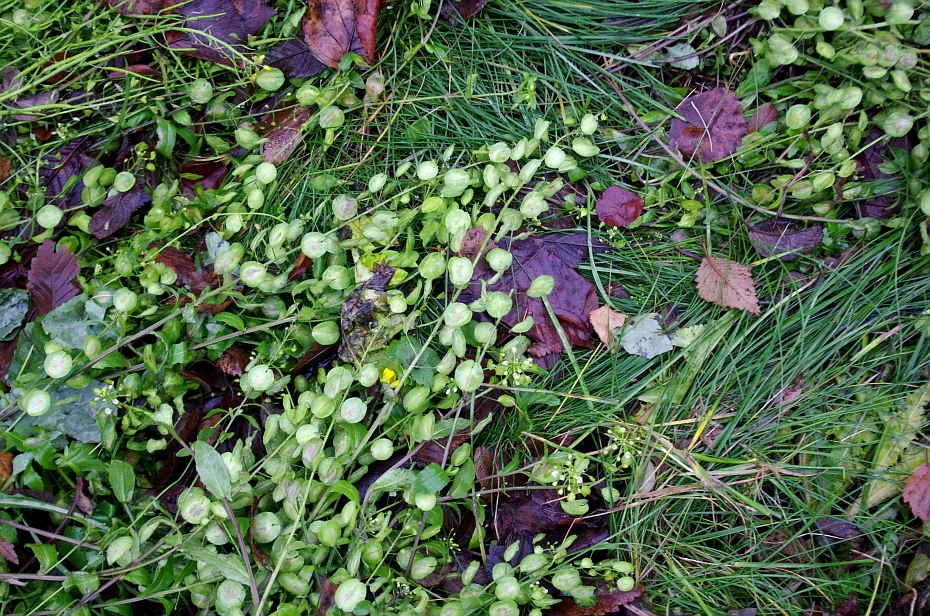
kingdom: Plantae
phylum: Tracheophyta
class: Magnoliopsida
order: Brassicales
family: Brassicaceae
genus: Thlaspi
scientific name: Thlaspi arvense
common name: Field pennycress
